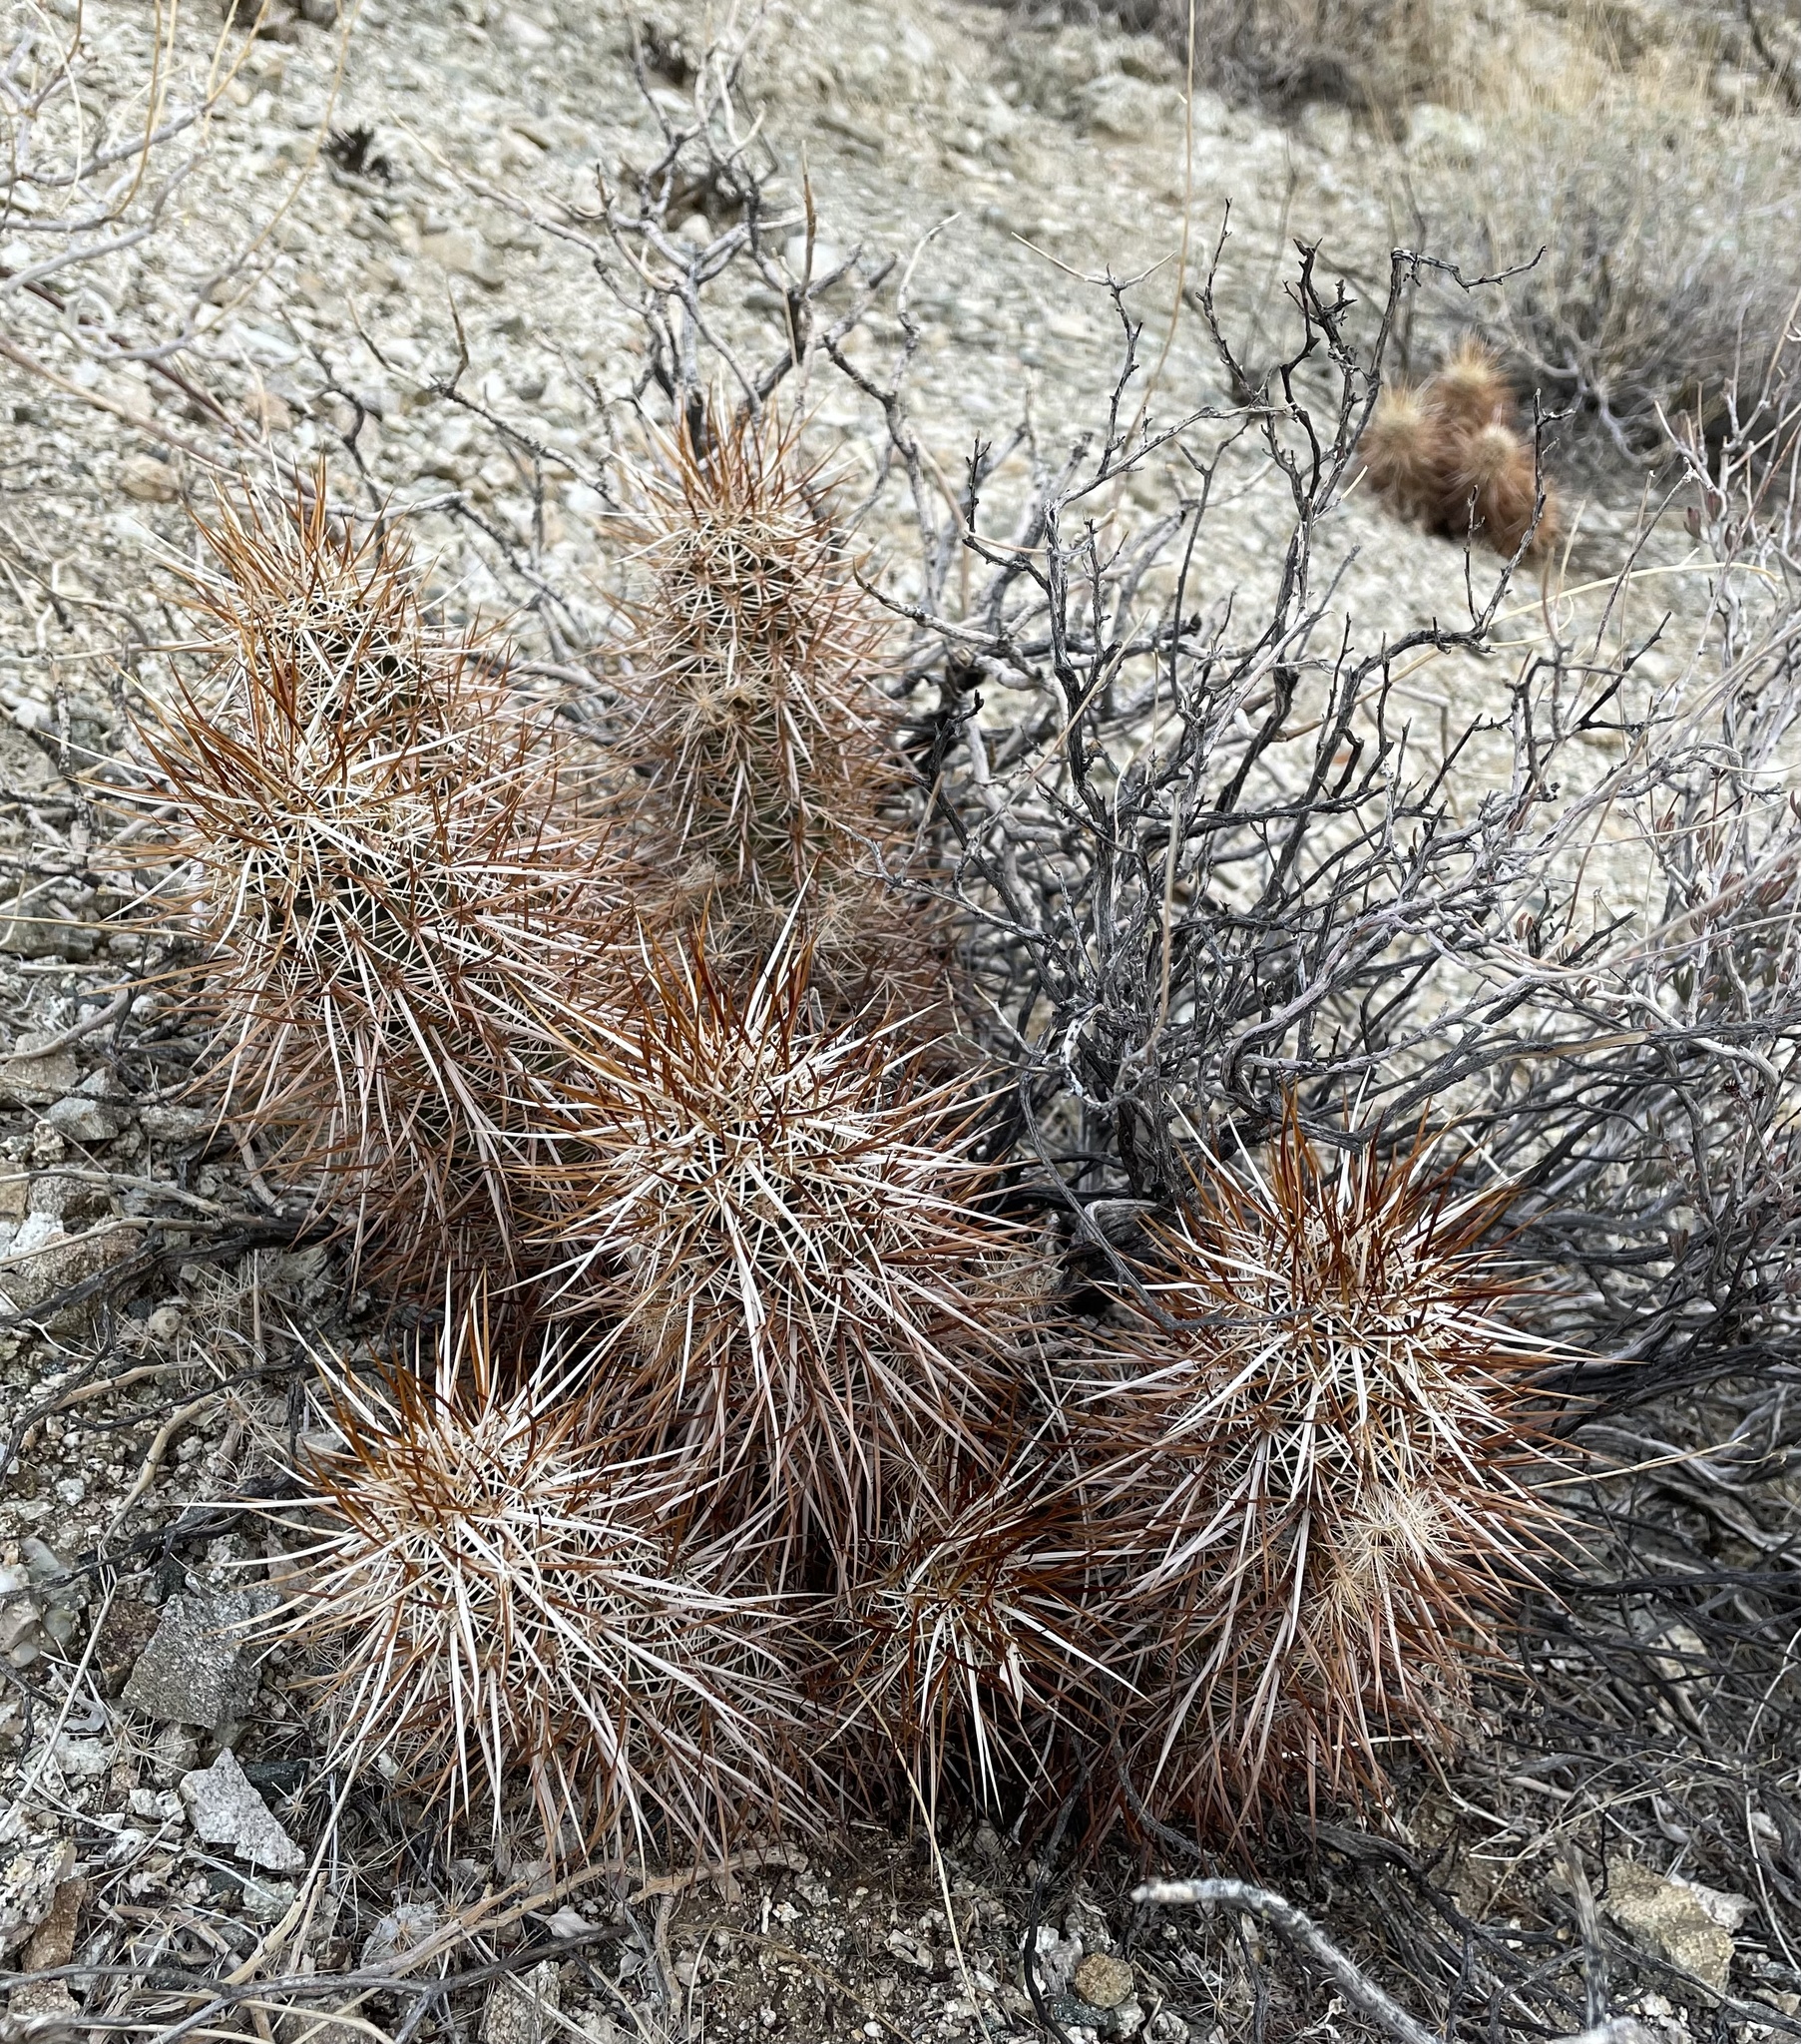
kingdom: Plantae
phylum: Tracheophyta
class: Magnoliopsida
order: Caryophyllales
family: Cactaceae
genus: Echinocereus
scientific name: Echinocereus engelmannii
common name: Engelmann's hedgehog cactus
